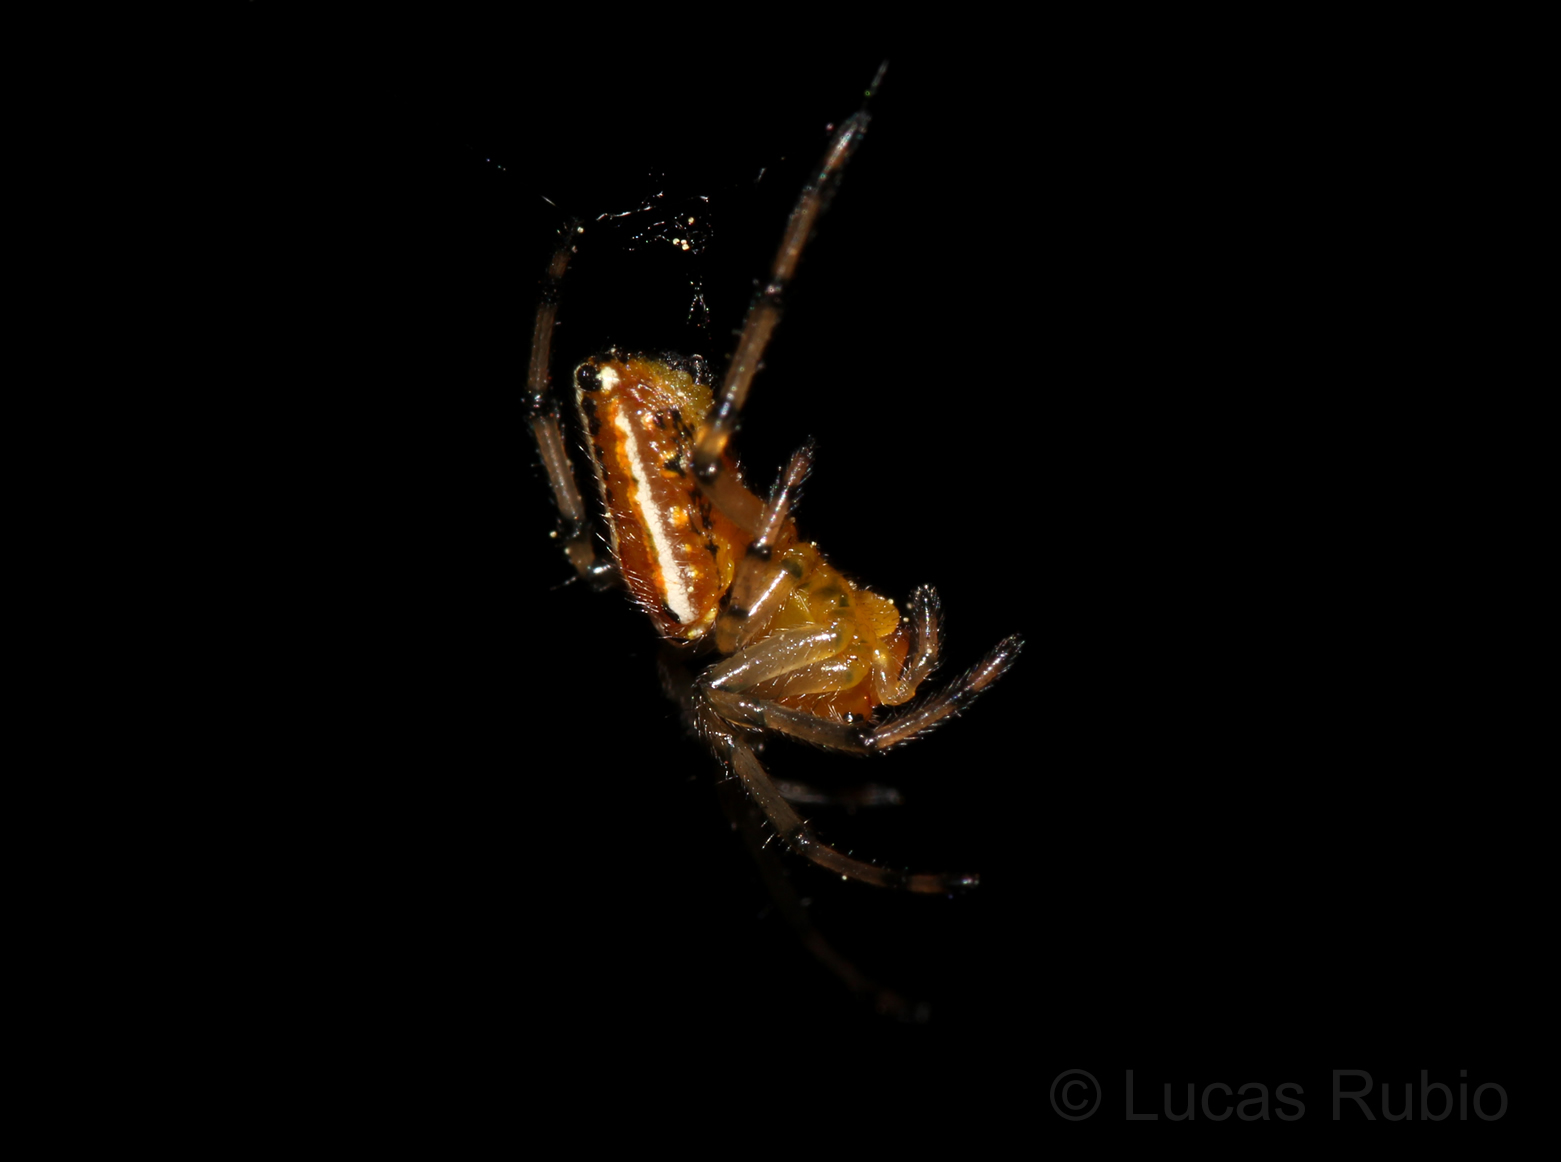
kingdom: Animalia
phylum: Arthropoda
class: Arachnida
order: Araneae
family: Araneidae
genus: Alpaida
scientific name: Alpaida rubellula
